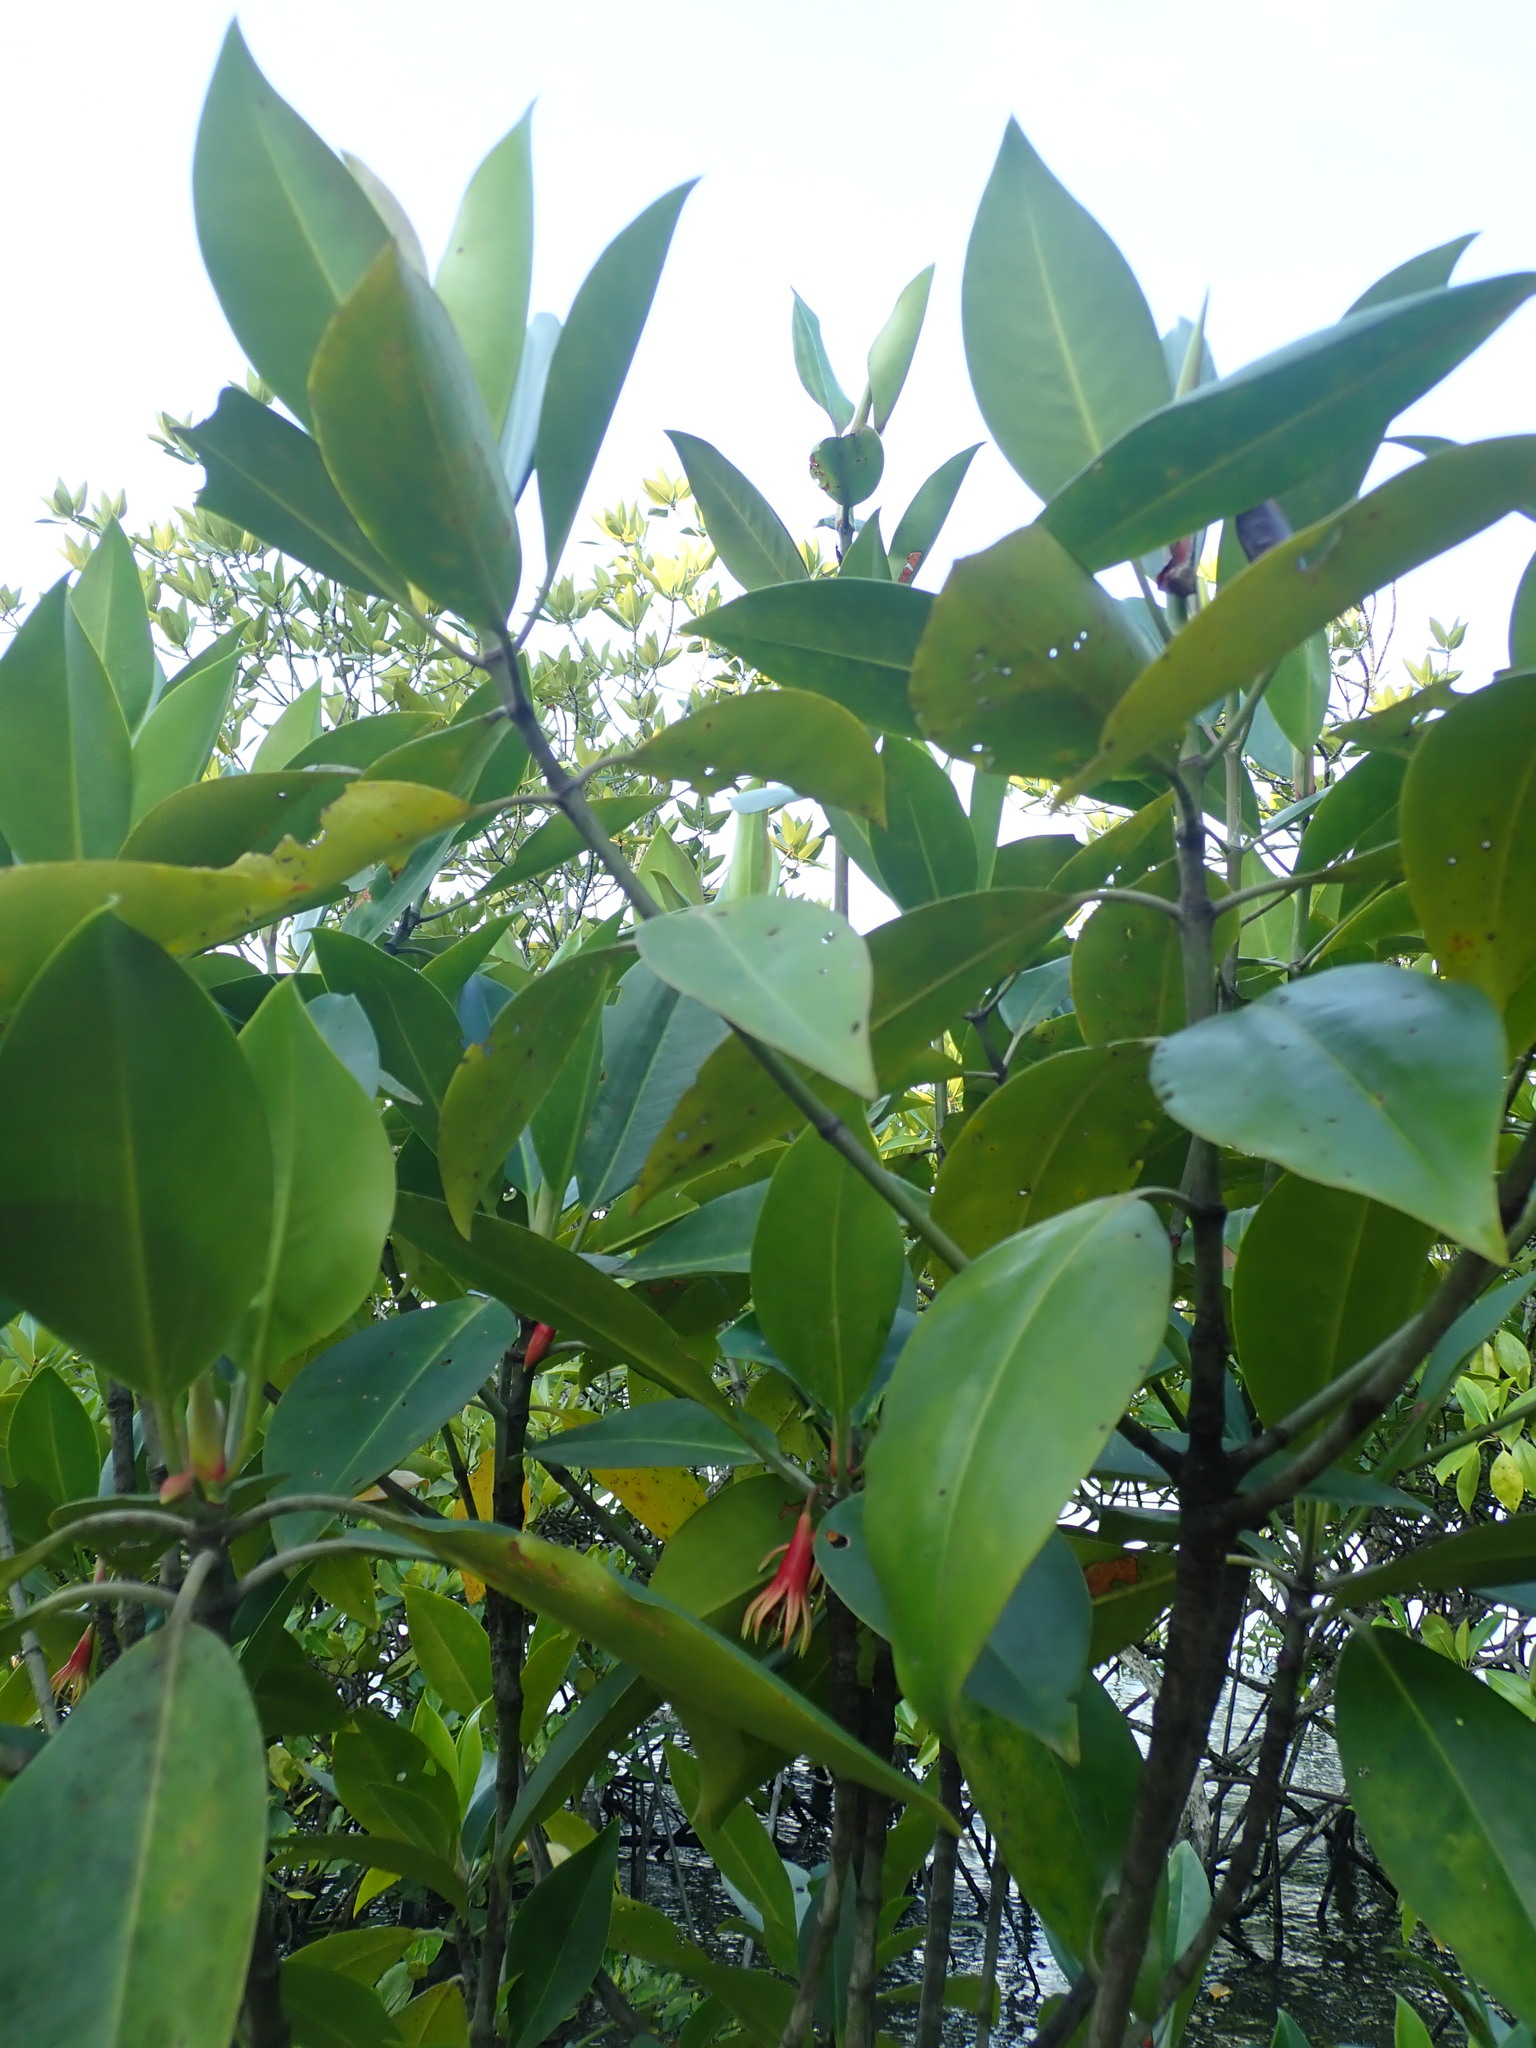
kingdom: Plantae
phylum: Tracheophyta
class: Magnoliopsida
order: Malpighiales
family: Rhizophoraceae
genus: Bruguiera
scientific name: Bruguiera gymnorhiza
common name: Oriental mangrove
